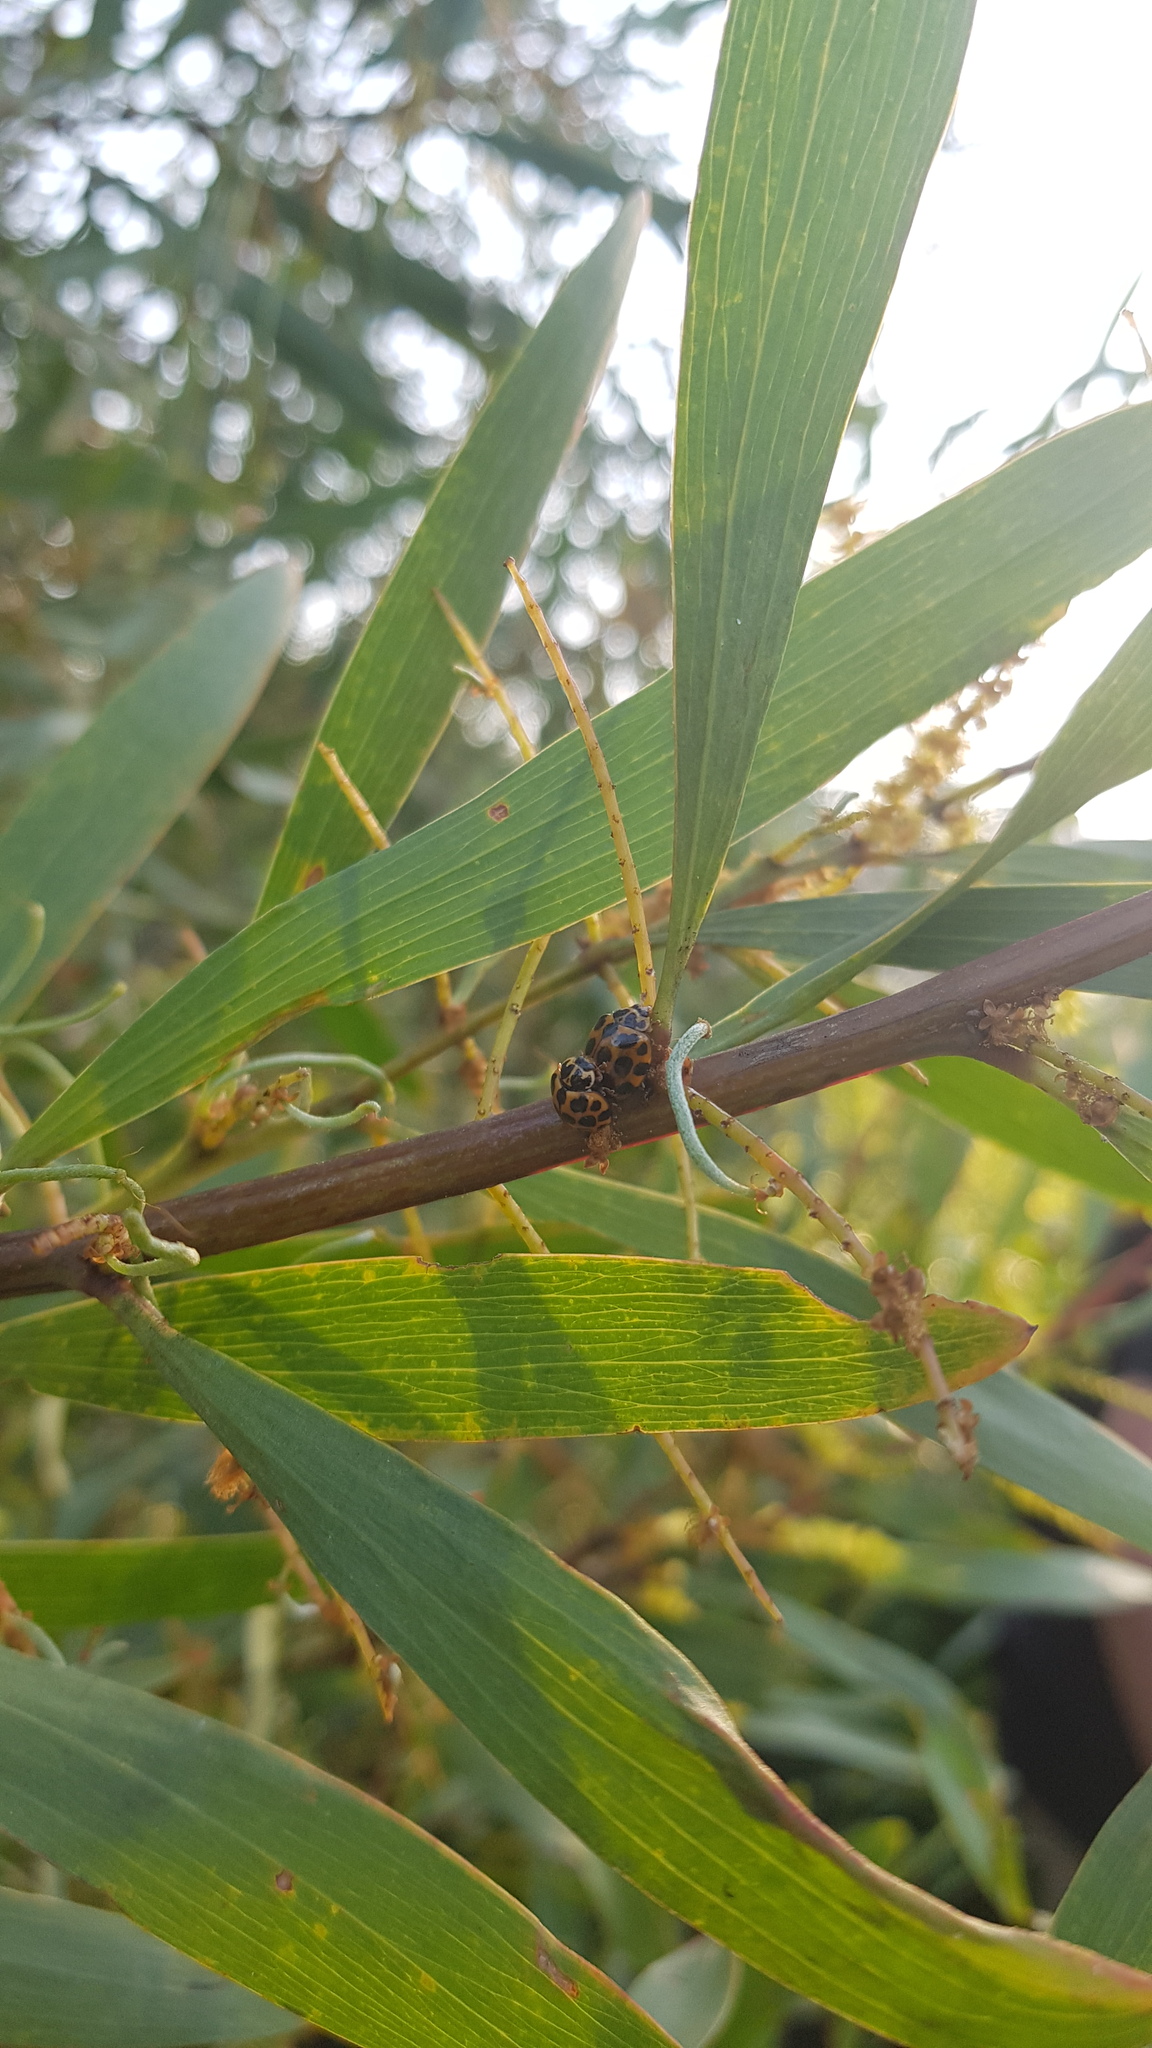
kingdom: Animalia
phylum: Arthropoda
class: Insecta
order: Coleoptera
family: Coccinellidae
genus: Harmonia
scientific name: Harmonia conformis
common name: Common spotted ladybird beetle
